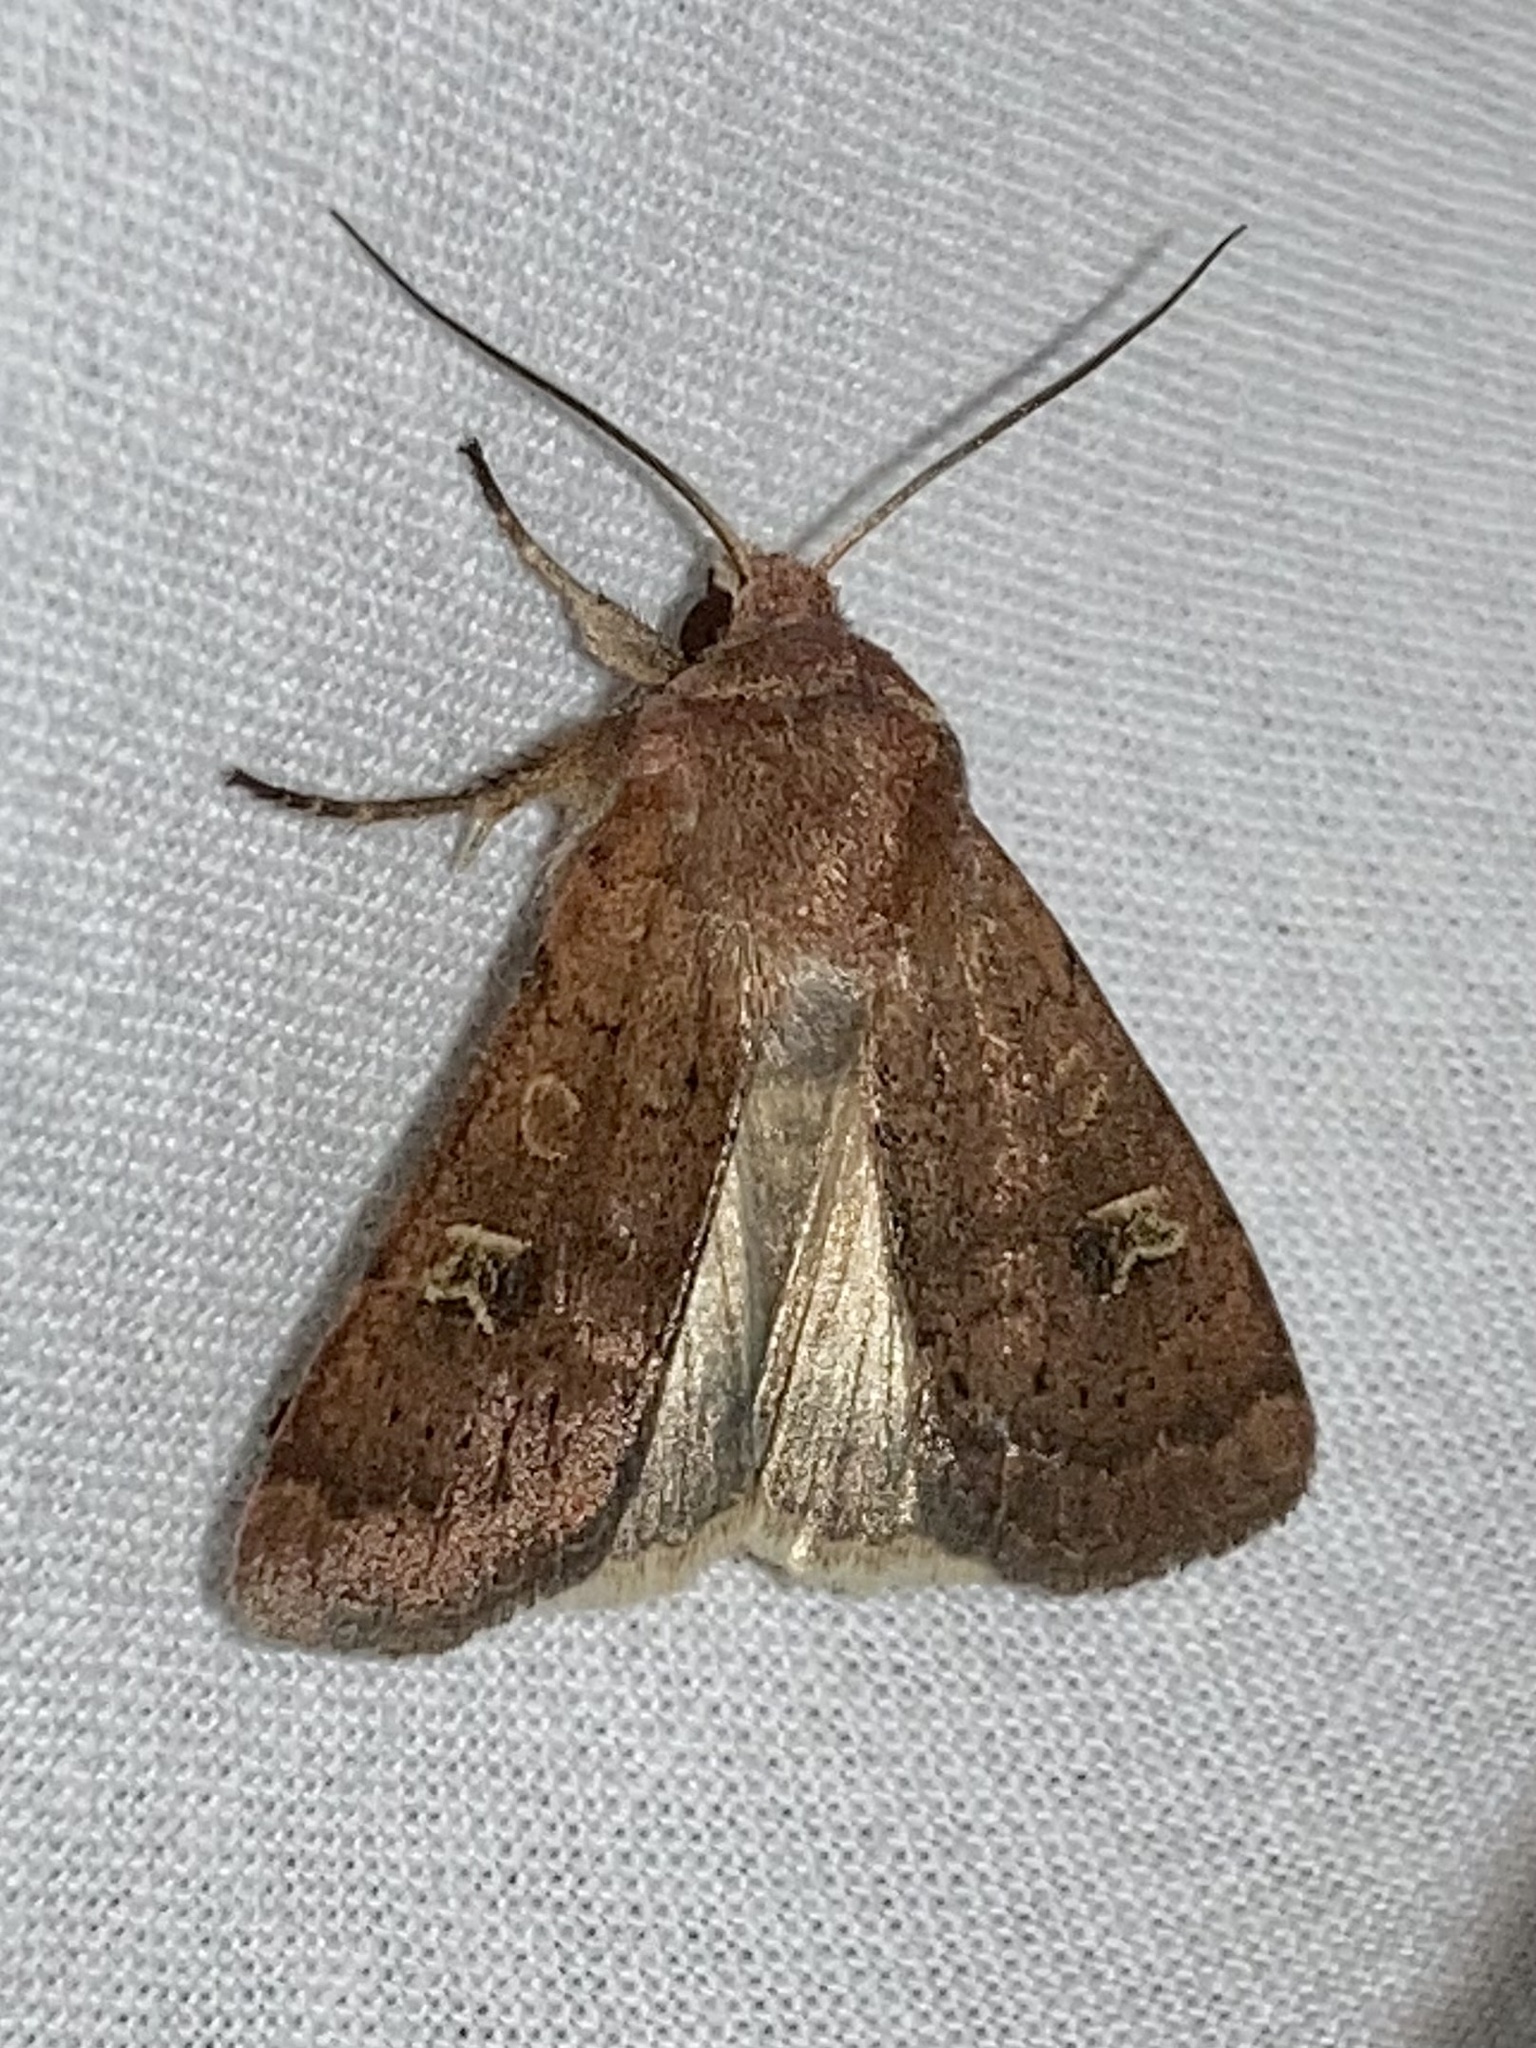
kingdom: Animalia
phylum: Arthropoda
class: Insecta
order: Lepidoptera
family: Noctuidae
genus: Xestia
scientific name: Xestia xanthographa
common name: Square-spot rustic
